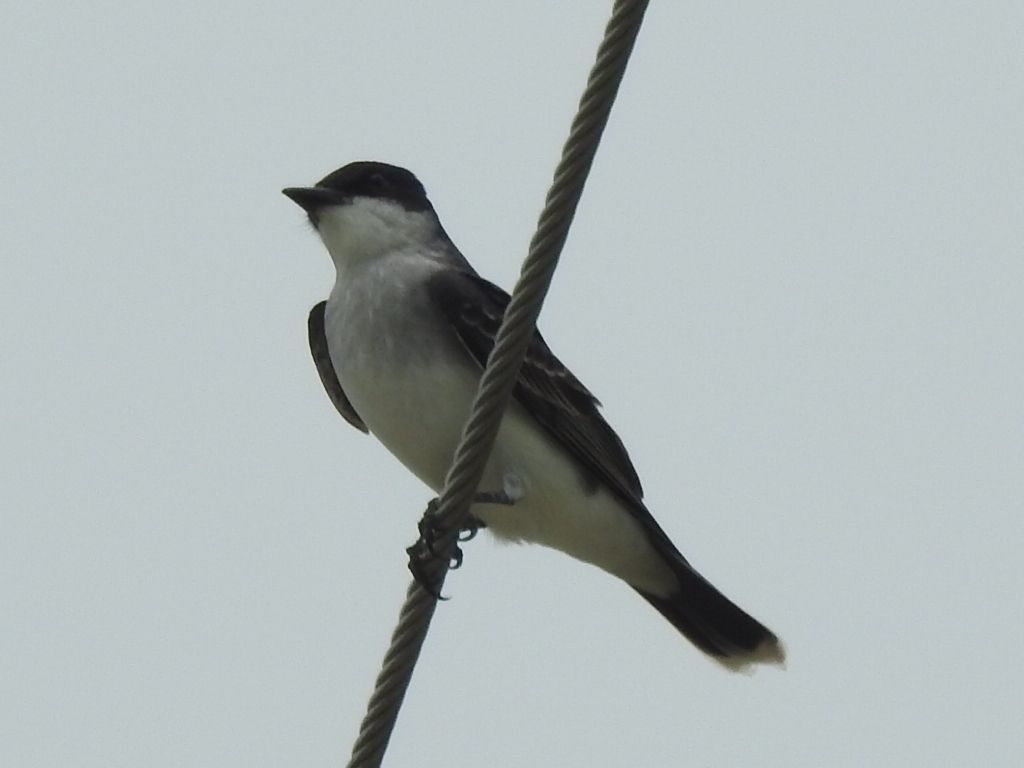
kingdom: Animalia
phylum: Chordata
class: Aves
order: Passeriformes
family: Tyrannidae
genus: Tyrannus
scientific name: Tyrannus tyrannus
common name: Eastern kingbird
